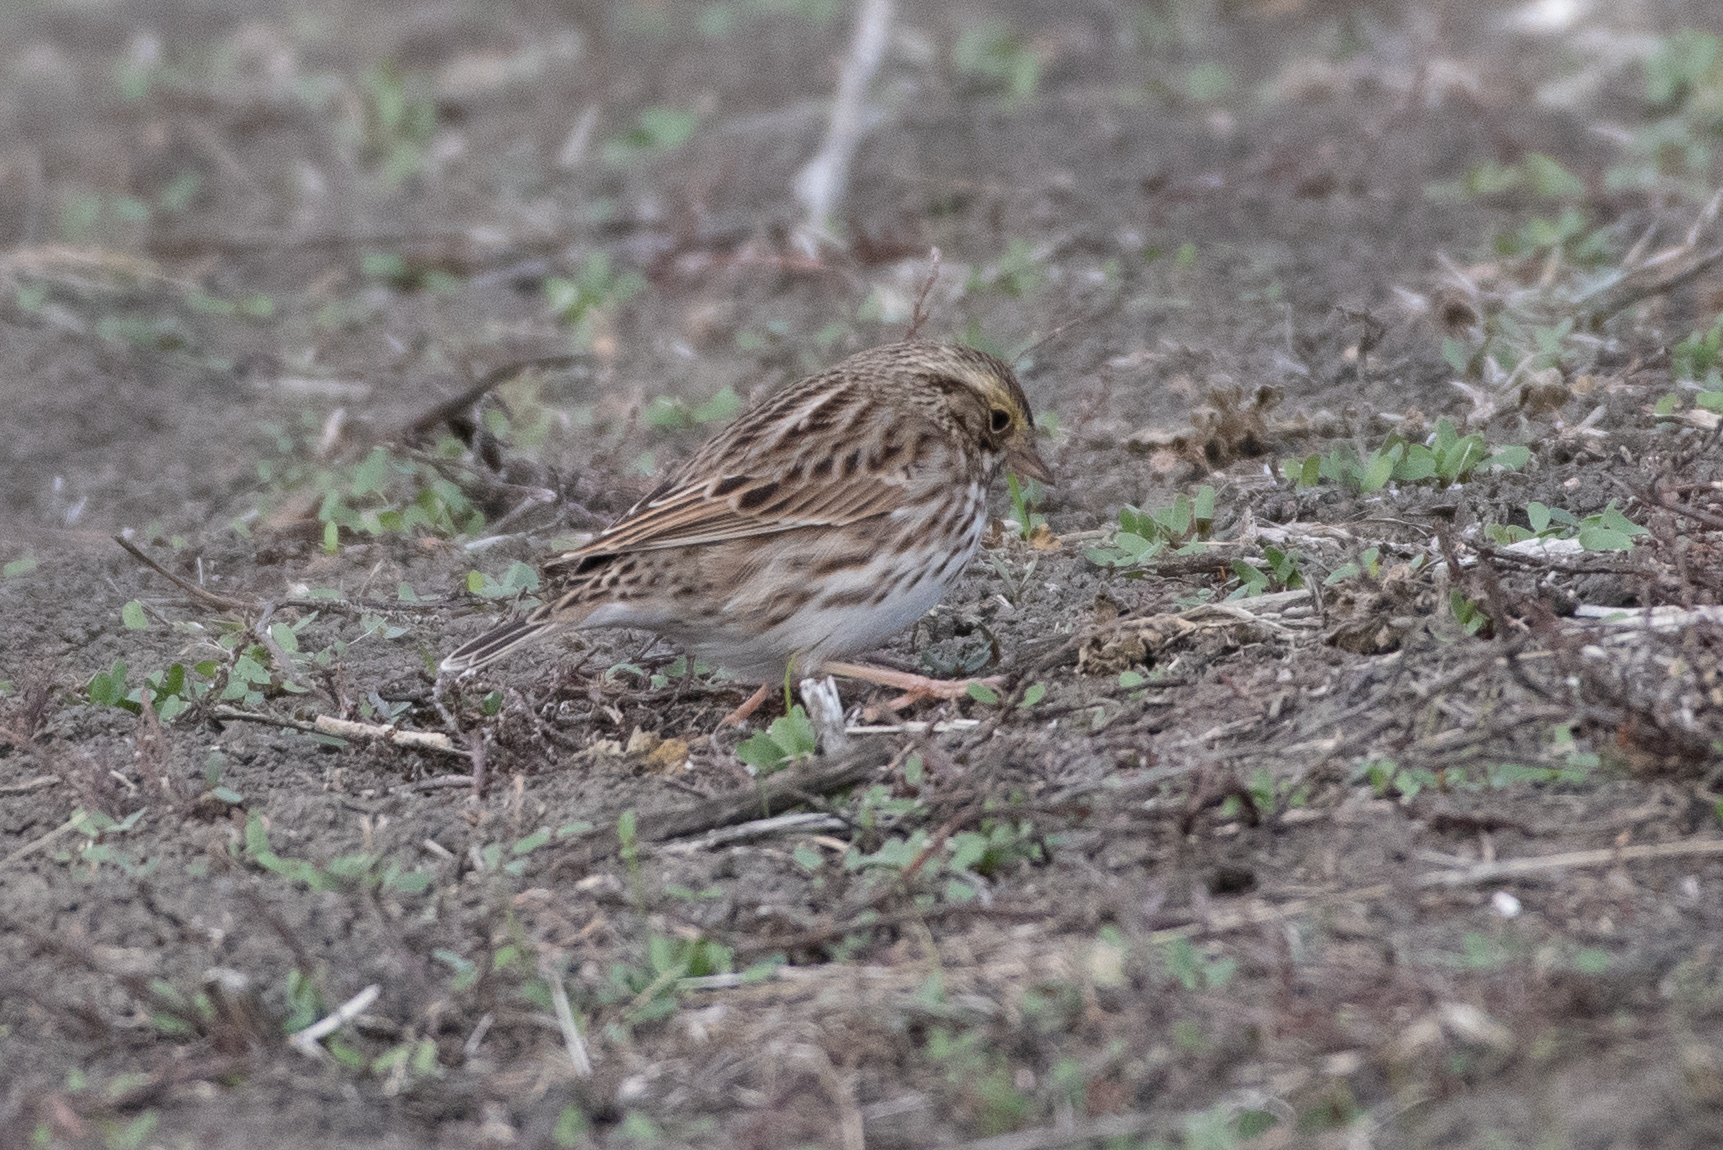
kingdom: Animalia
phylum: Chordata
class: Aves
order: Passeriformes
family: Passerellidae
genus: Passerculus
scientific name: Passerculus sandwichensis
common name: Savannah sparrow
